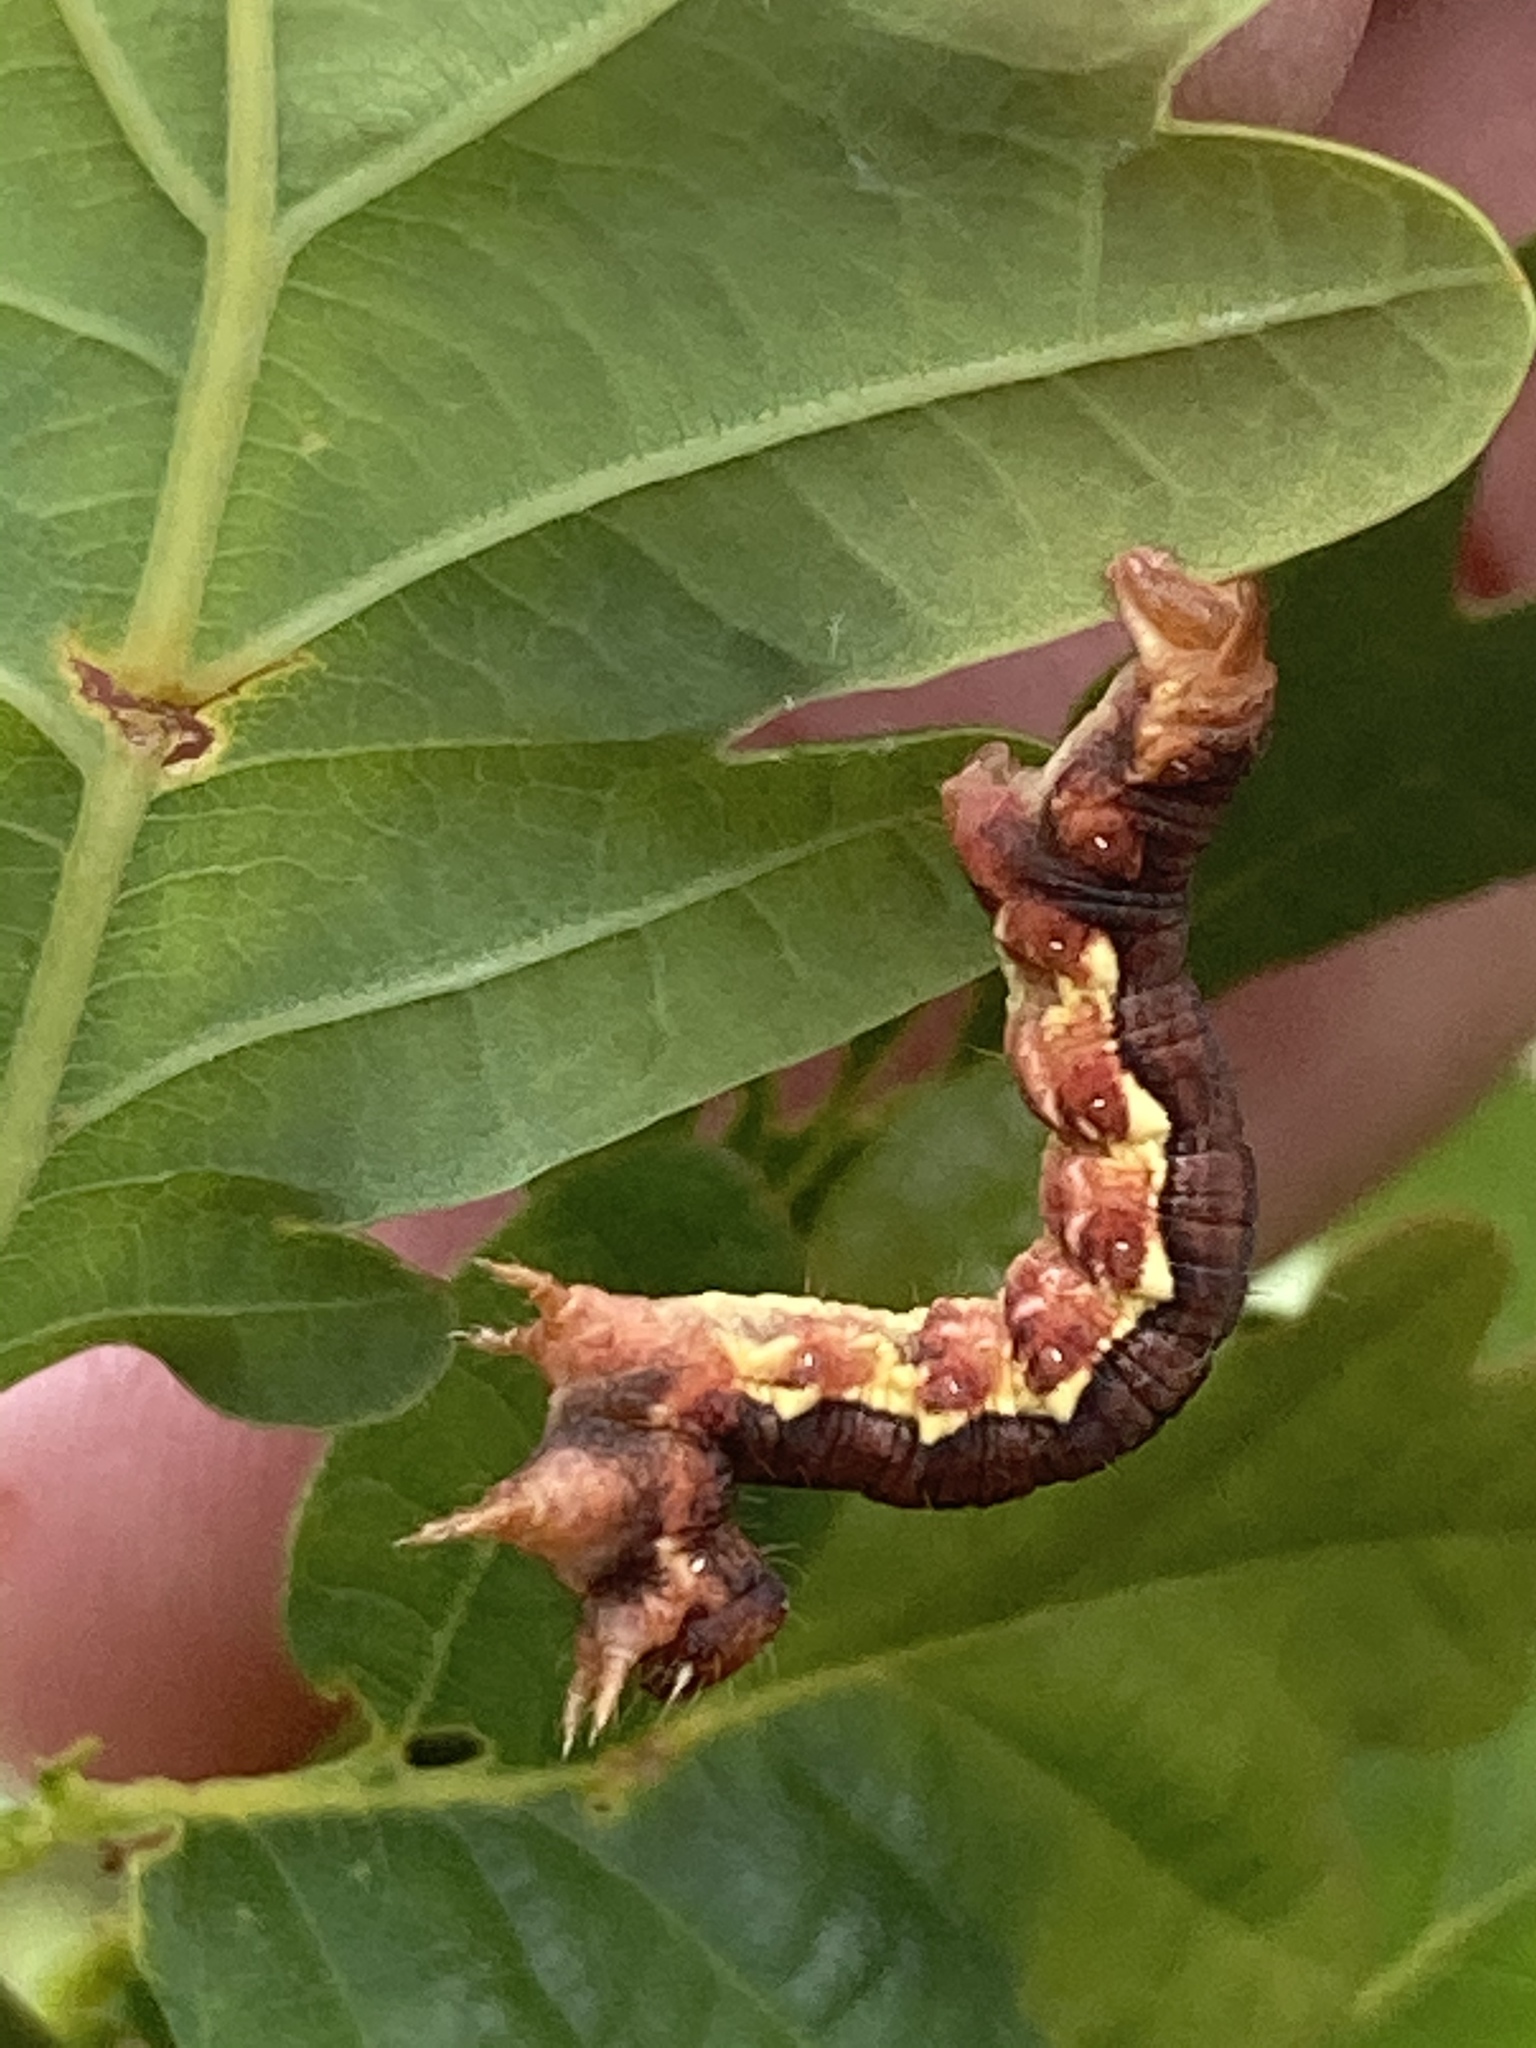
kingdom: Animalia
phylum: Arthropoda
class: Insecta
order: Lepidoptera
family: Geometridae
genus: Erannis
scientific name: Erannis defoliaria
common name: Mottled umber
